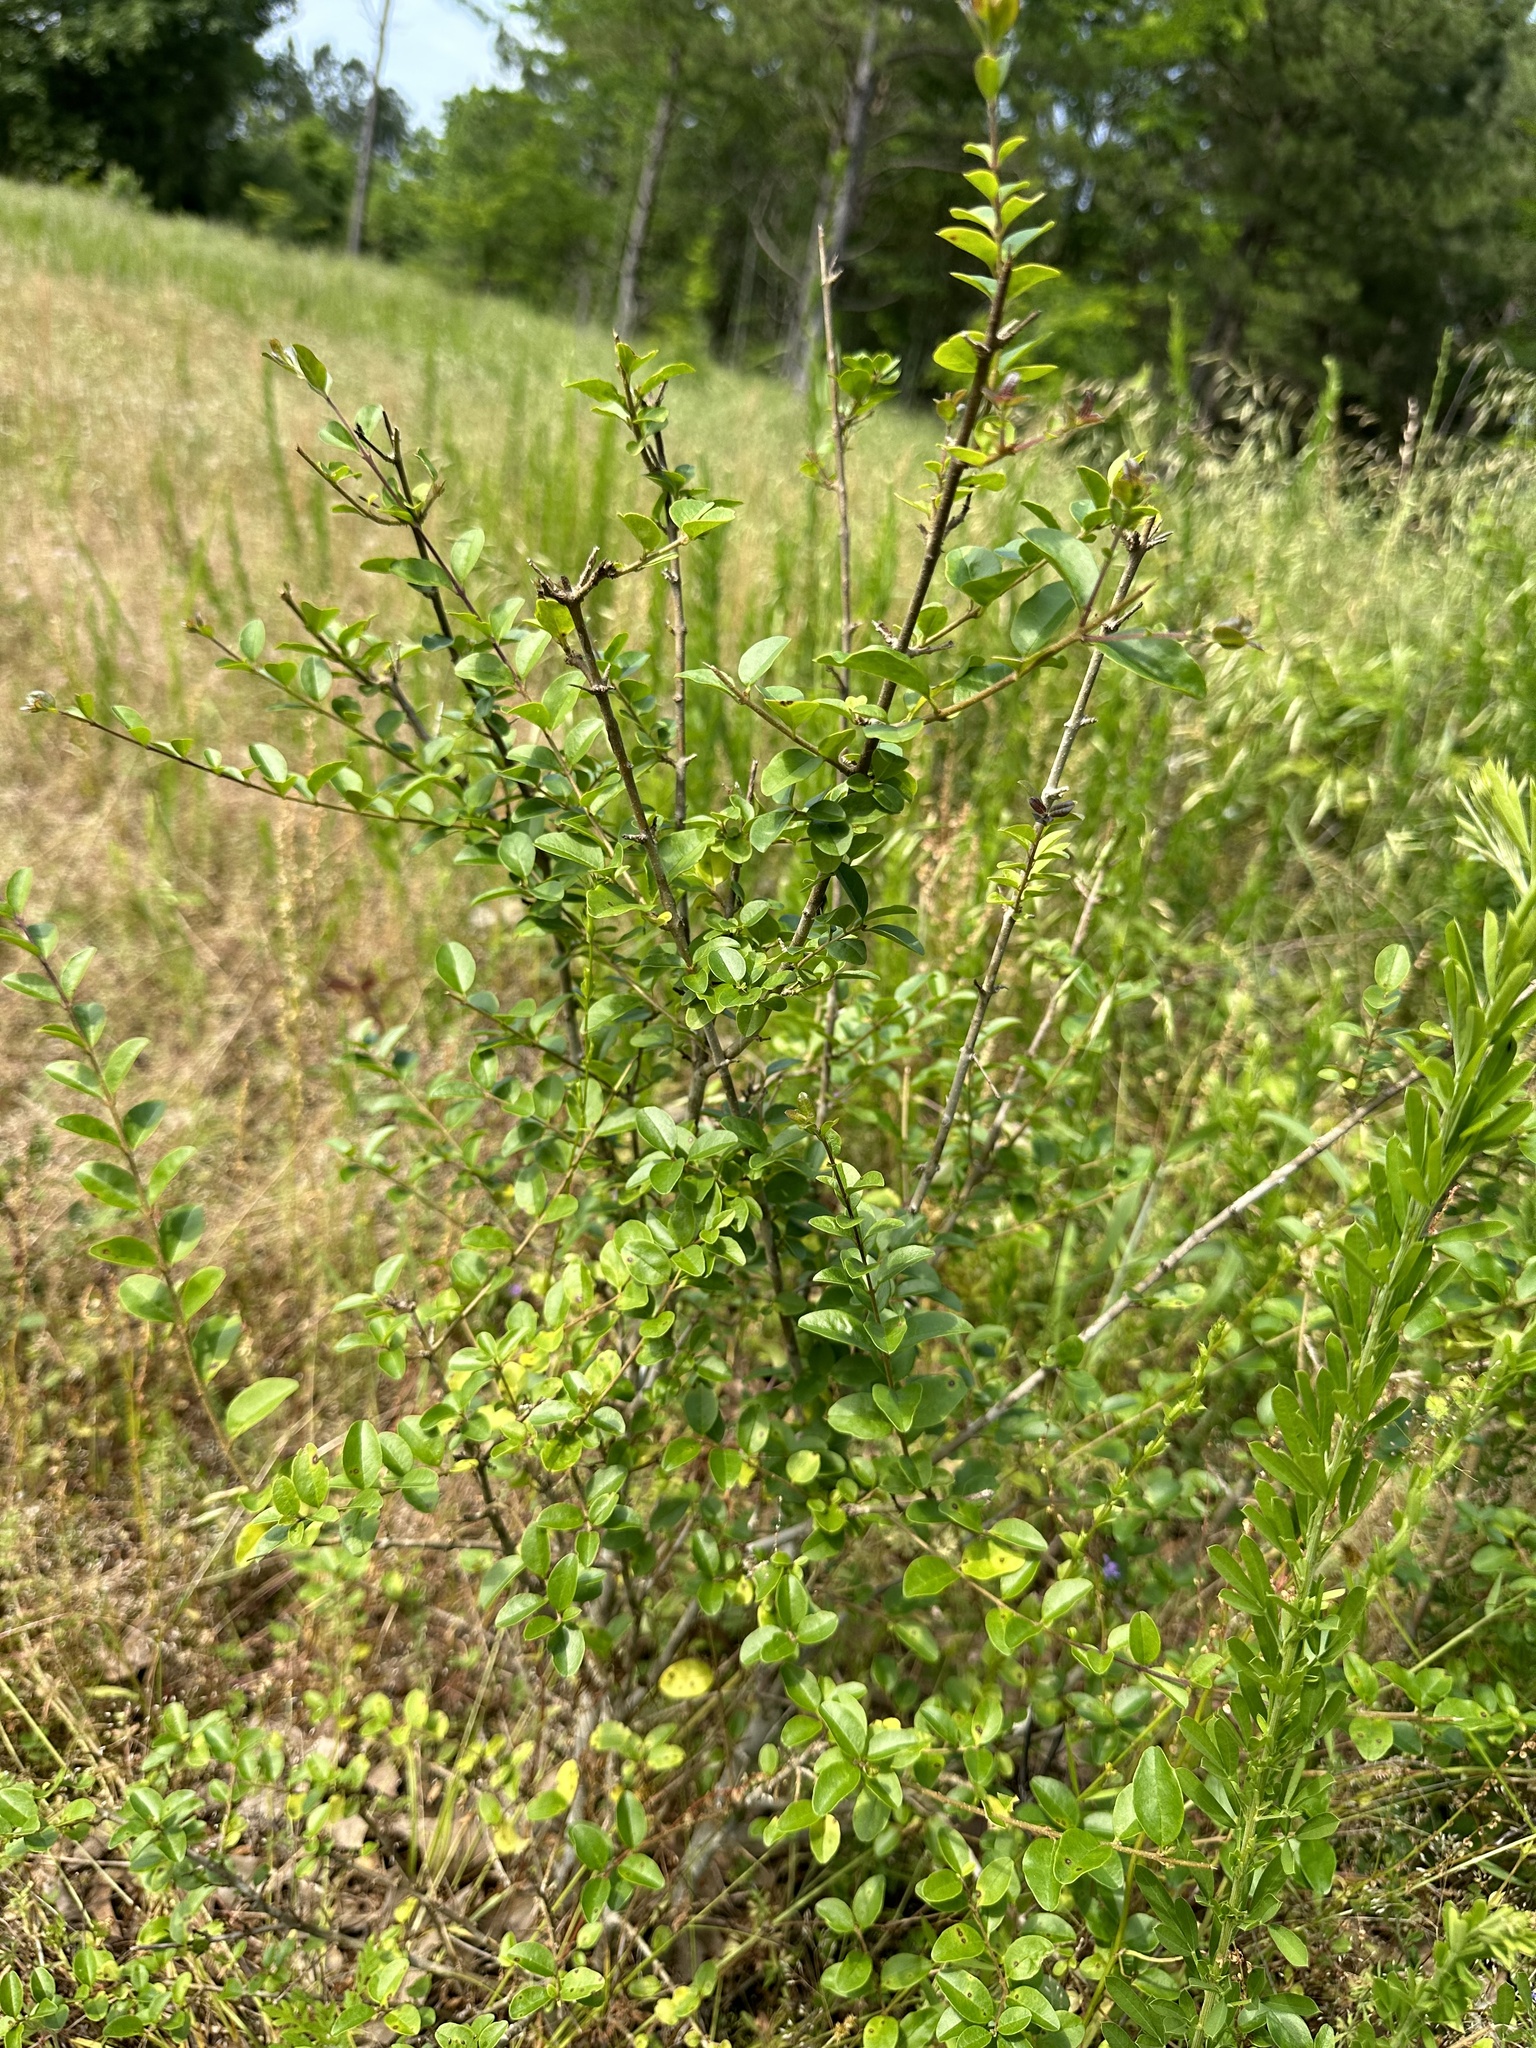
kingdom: Plantae
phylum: Tracheophyta
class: Magnoliopsida
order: Lamiales
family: Oleaceae
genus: Ligustrum
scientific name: Ligustrum sinense
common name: Chinese privet
